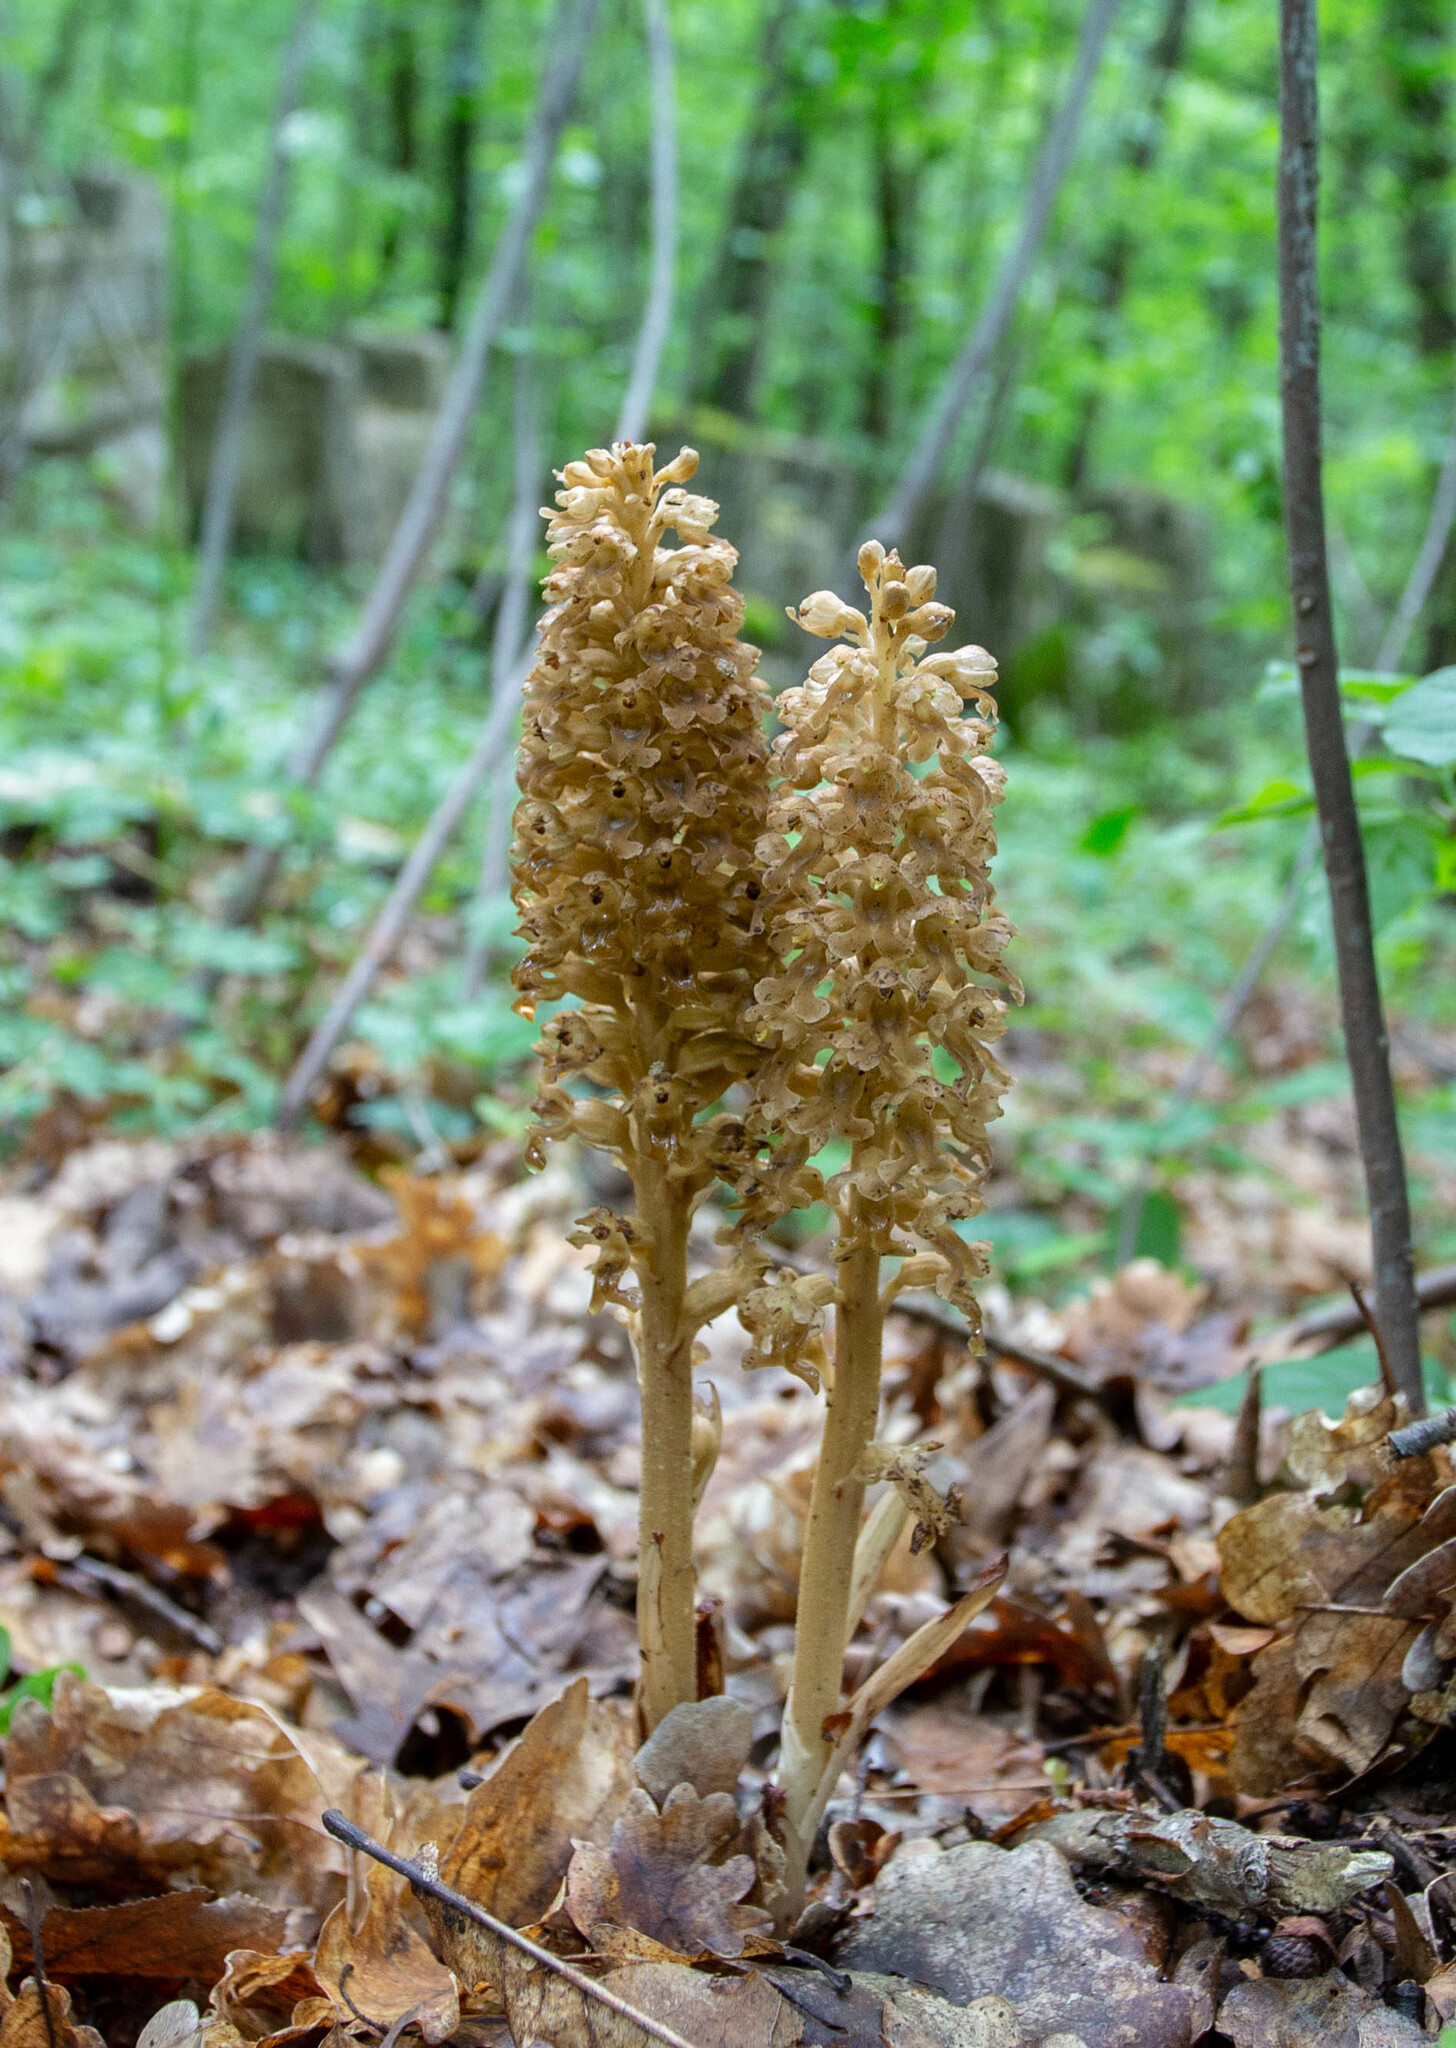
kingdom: Plantae
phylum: Tracheophyta
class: Liliopsida
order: Asparagales
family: Orchidaceae
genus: Neottia
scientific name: Neottia nidus-avis
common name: Bird's-nest orchid
